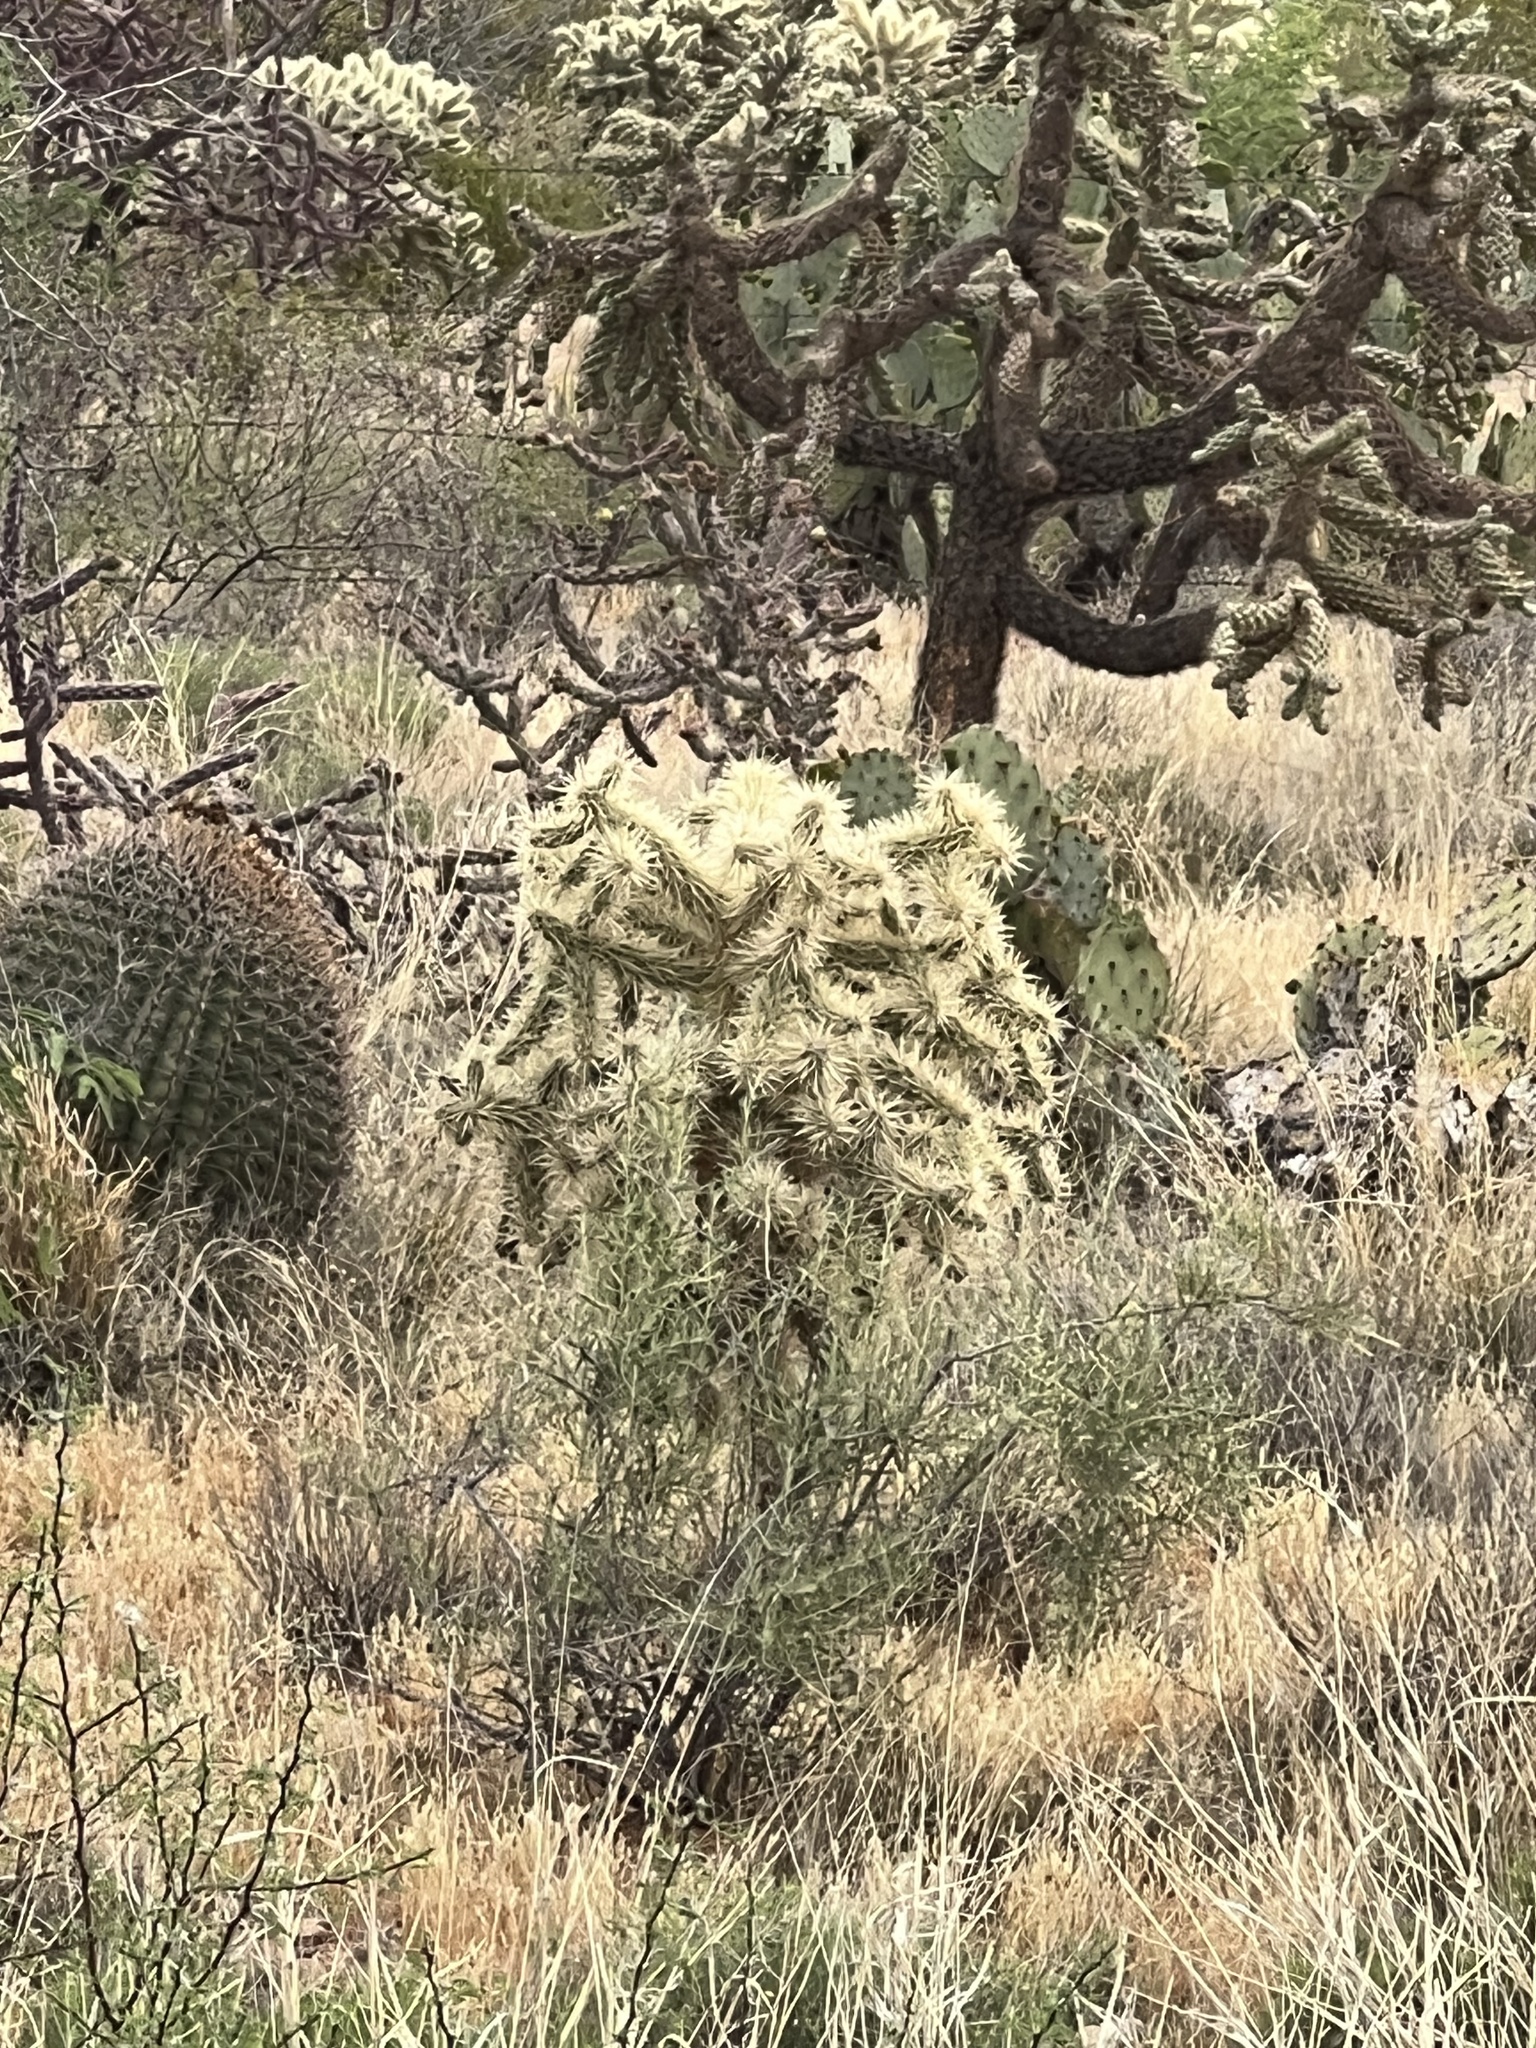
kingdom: Plantae
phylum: Tracheophyta
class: Magnoliopsida
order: Caryophyllales
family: Cactaceae
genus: Cylindropuntia
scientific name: Cylindropuntia fulgida
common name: Jumping cholla
